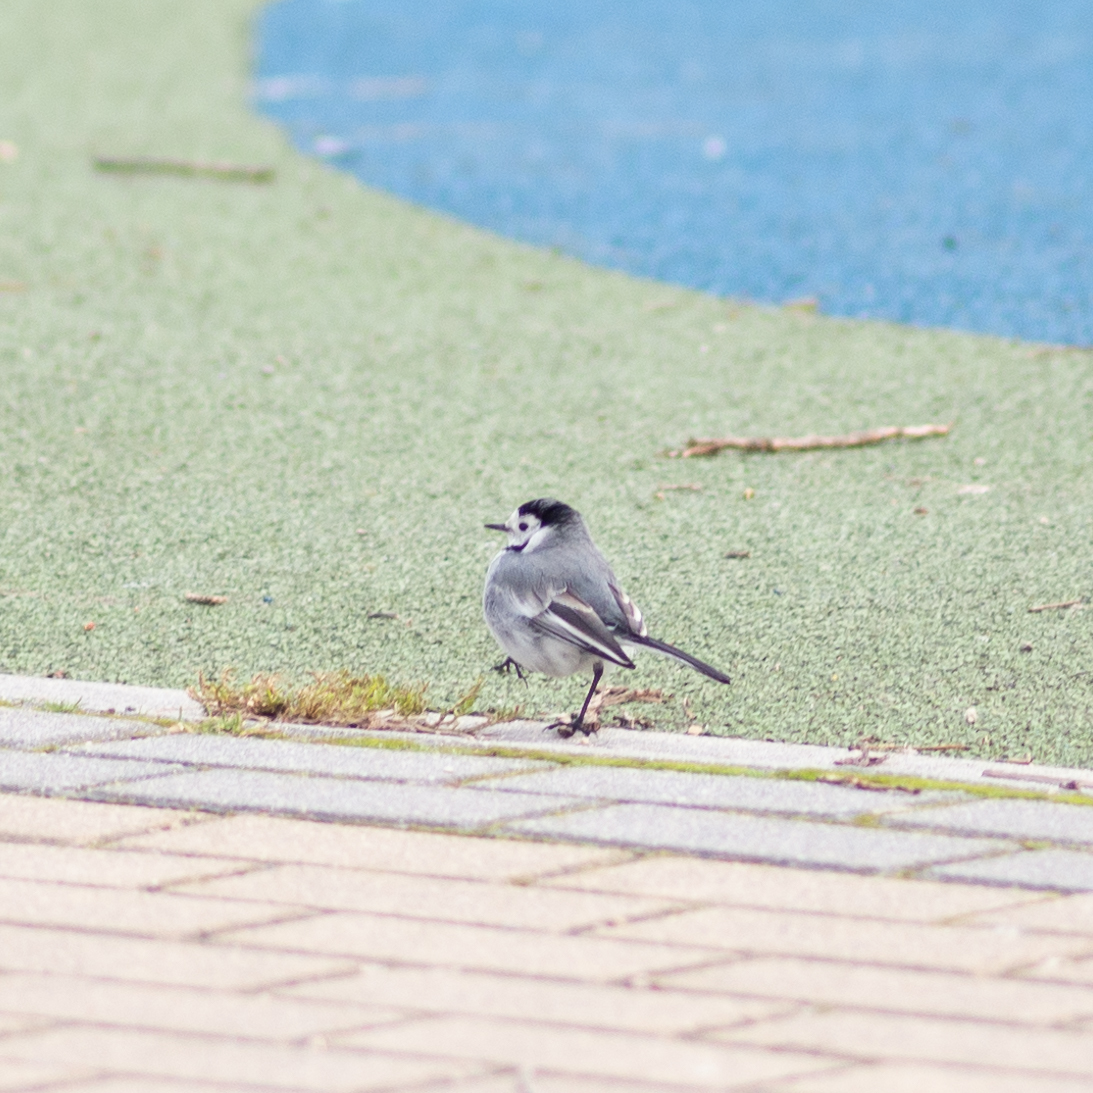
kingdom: Animalia
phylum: Chordata
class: Aves
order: Passeriformes
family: Motacillidae
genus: Motacilla
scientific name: Motacilla alba
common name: White wagtail
